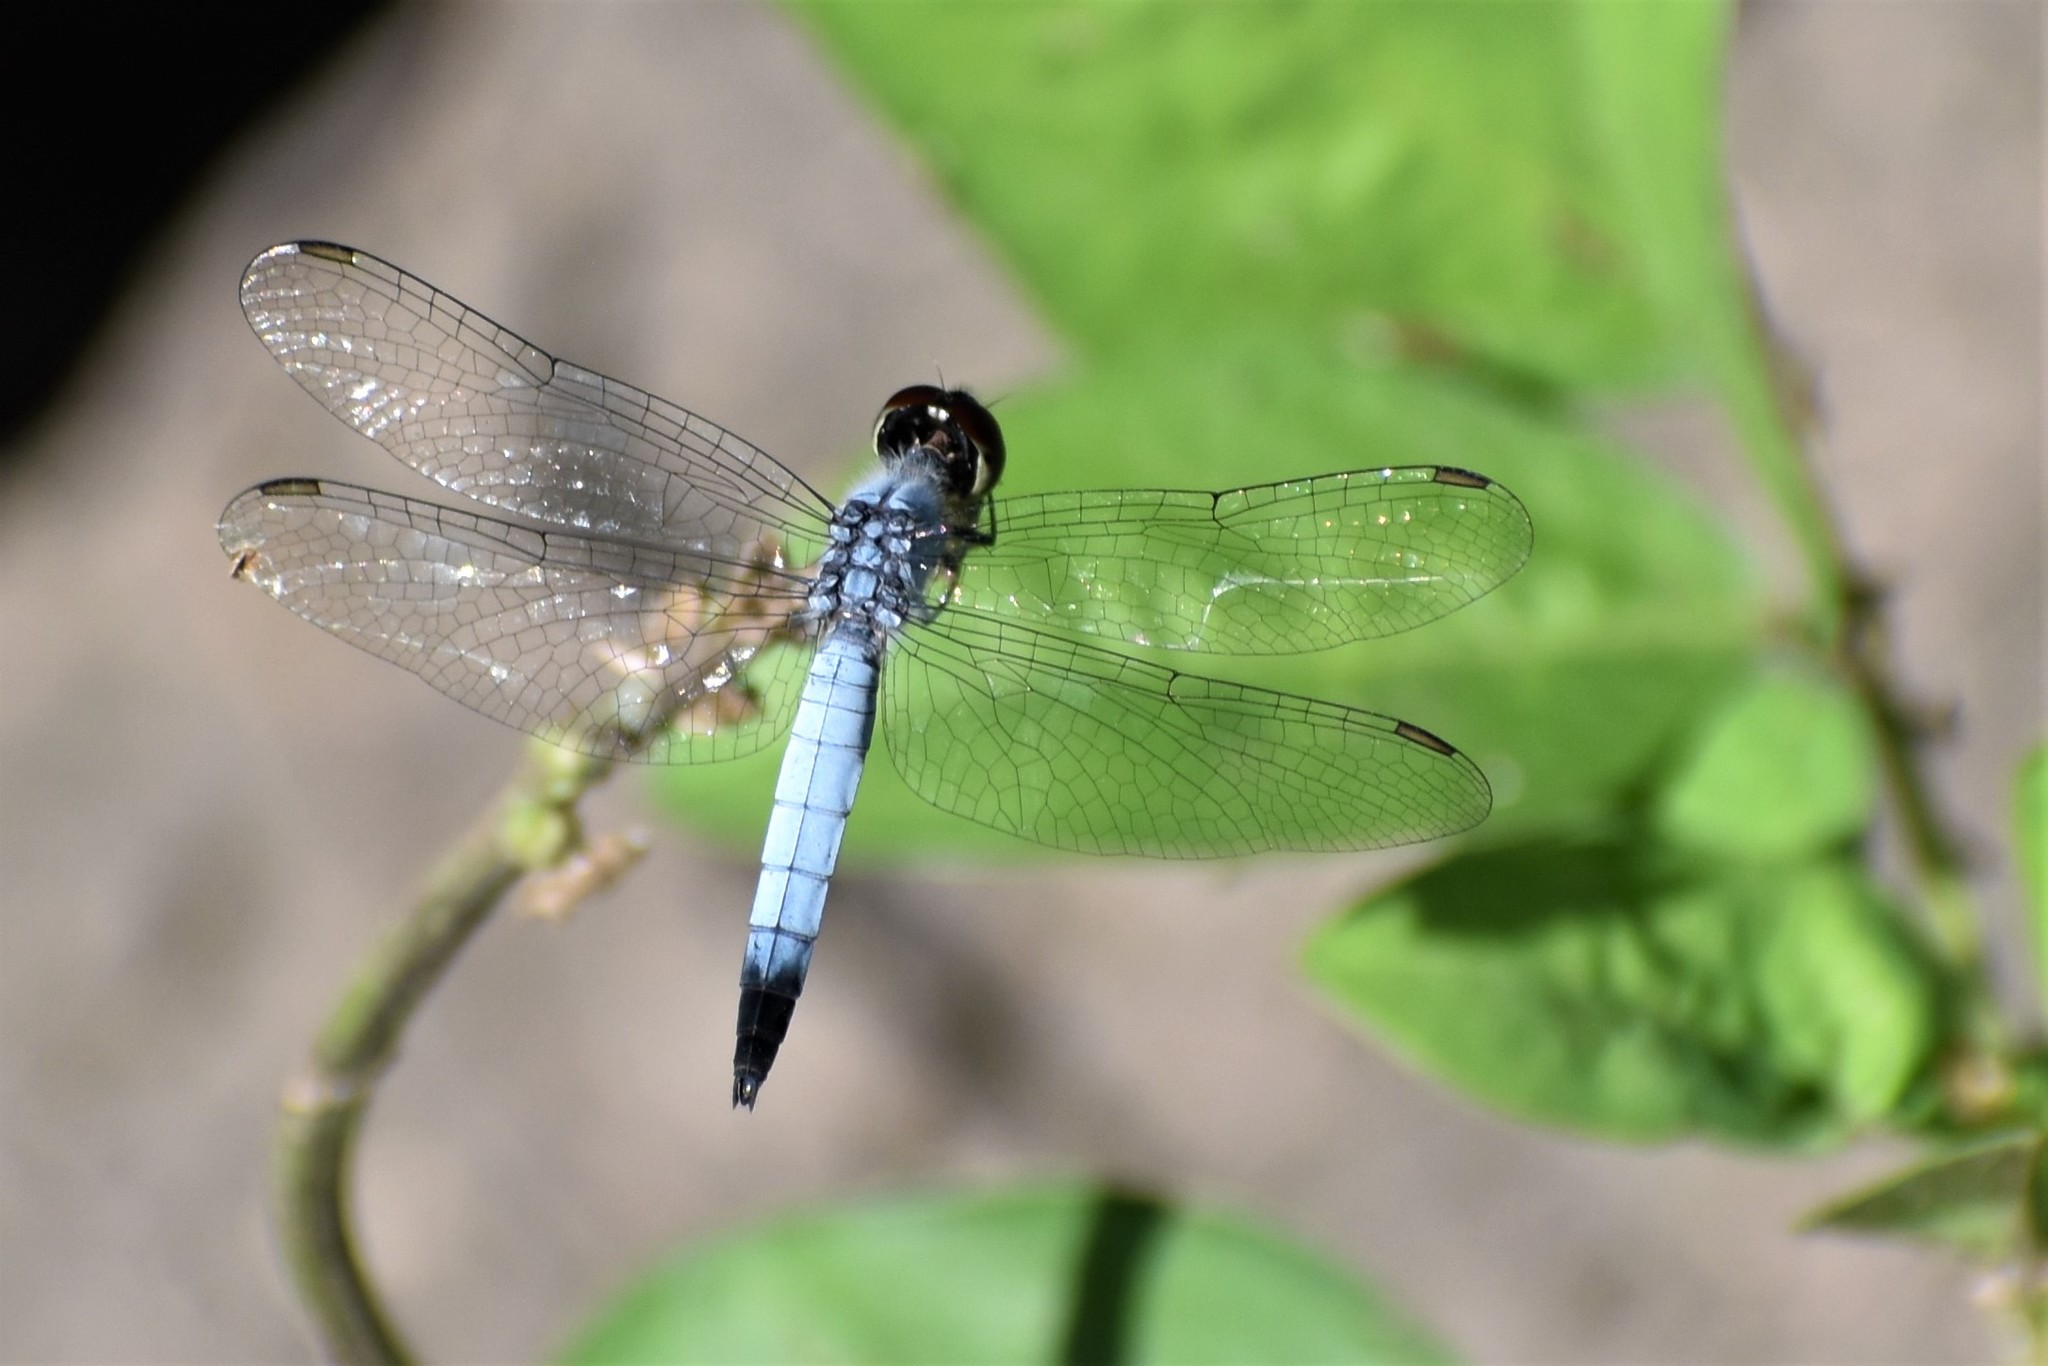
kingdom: Animalia
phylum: Arthropoda
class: Insecta
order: Odonata
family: Libellulidae
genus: Brachydiplax
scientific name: Brachydiplax denticauda
